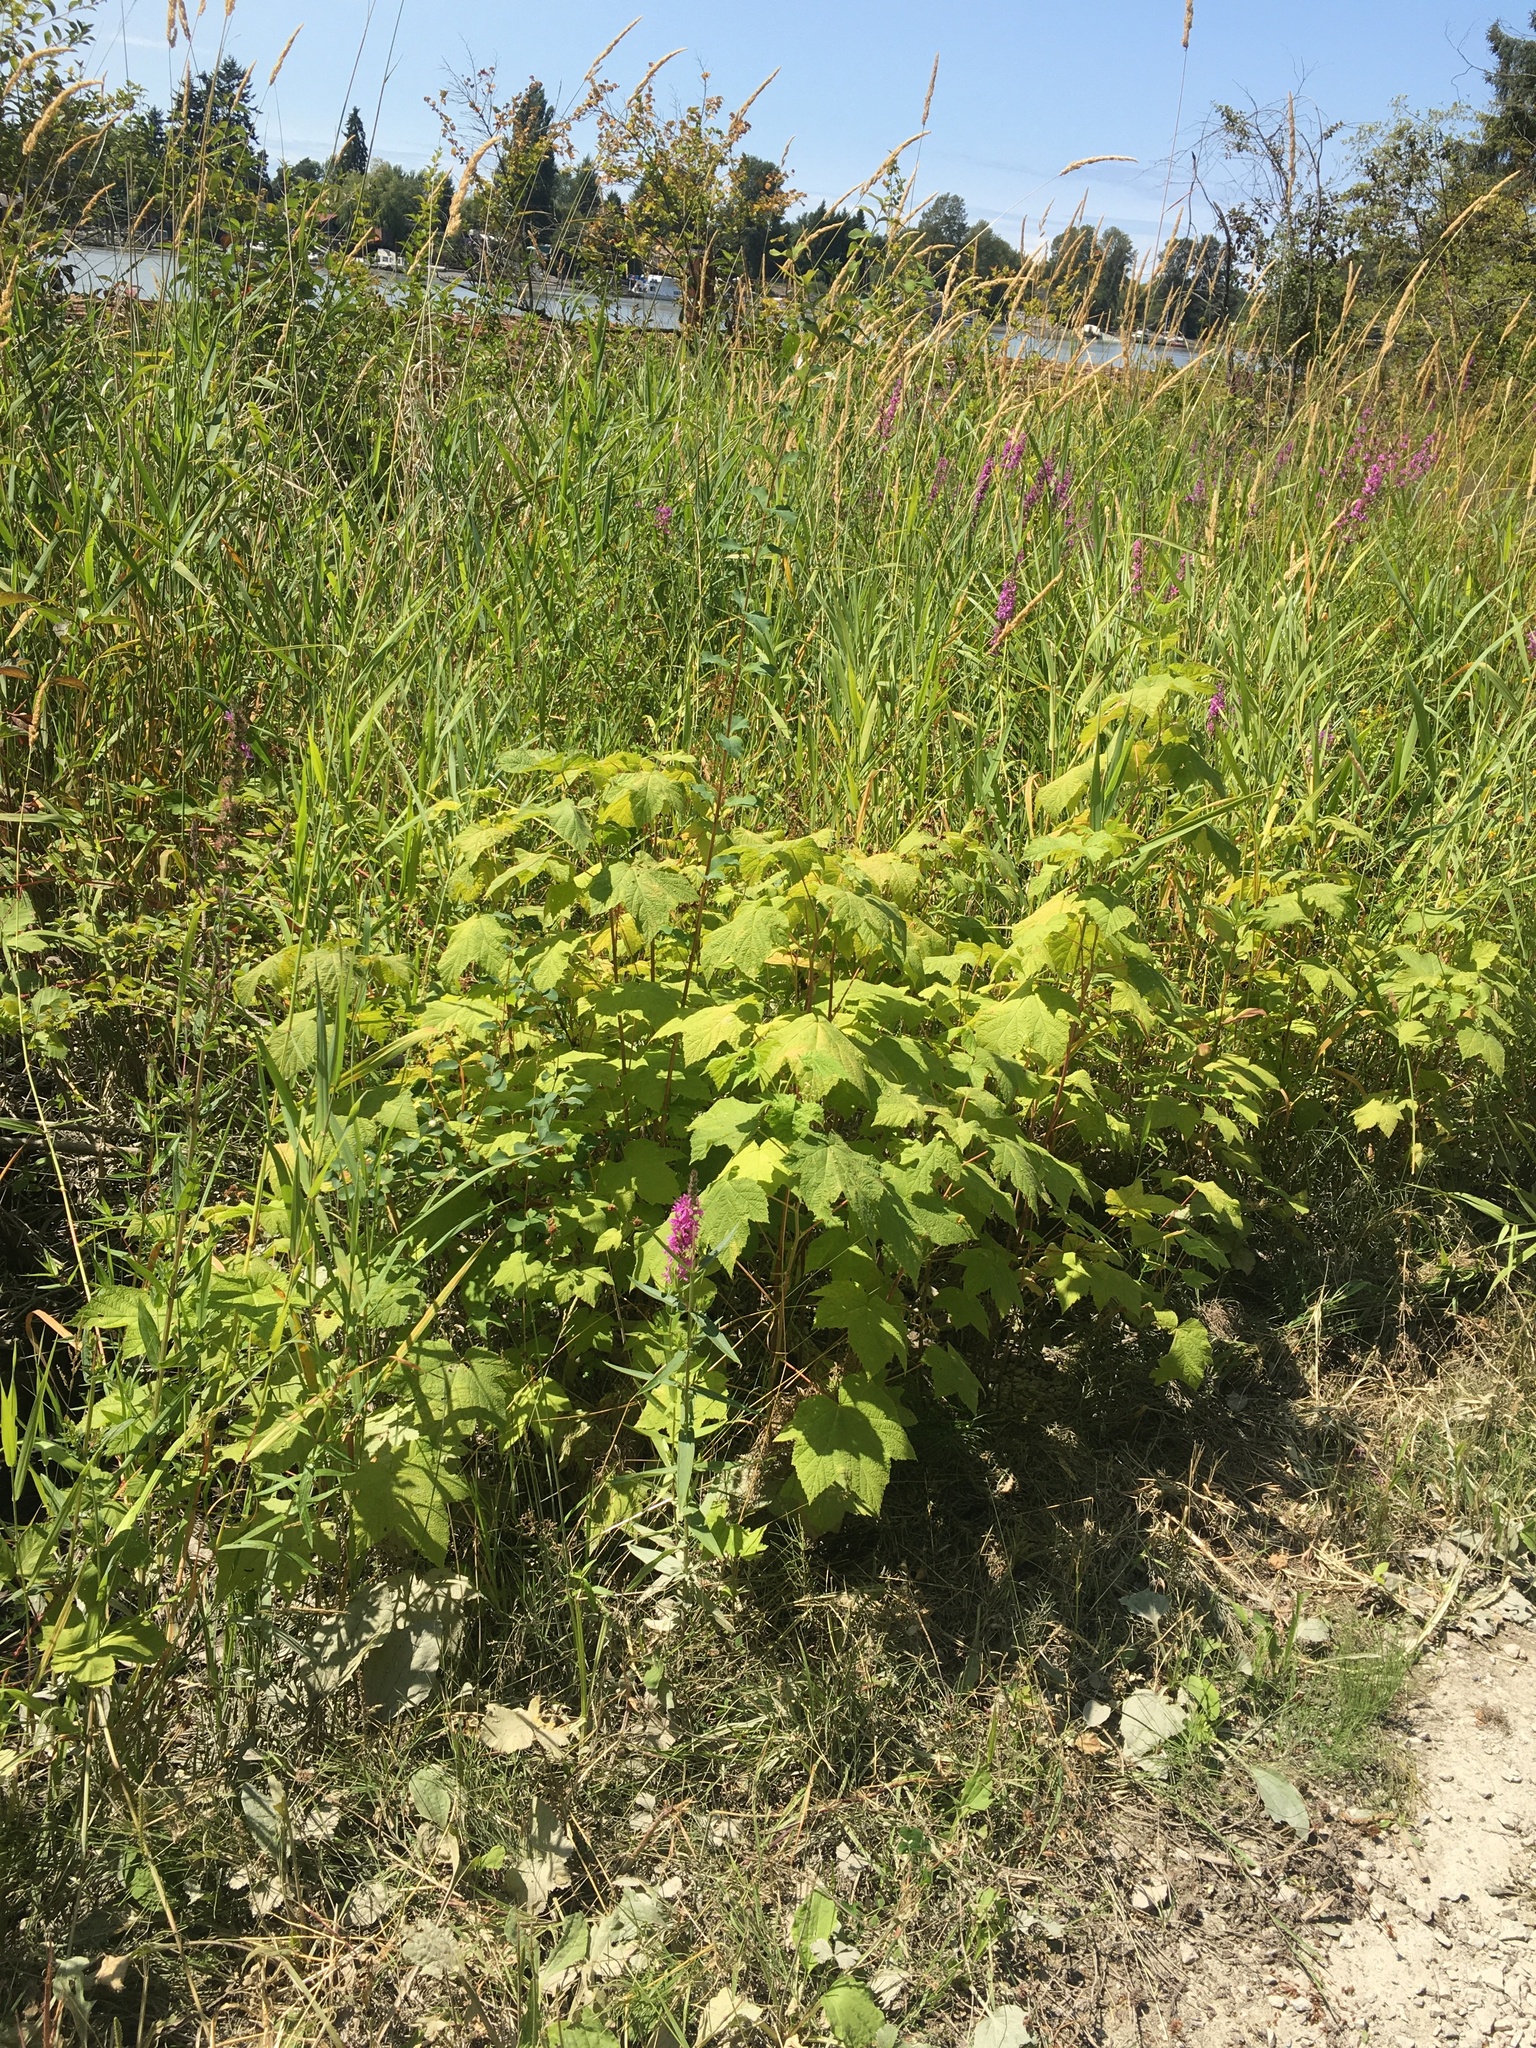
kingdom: Plantae
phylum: Tracheophyta
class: Magnoliopsida
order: Myrtales
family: Lythraceae
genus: Lythrum
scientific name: Lythrum salicaria
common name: Purple loosestrife
